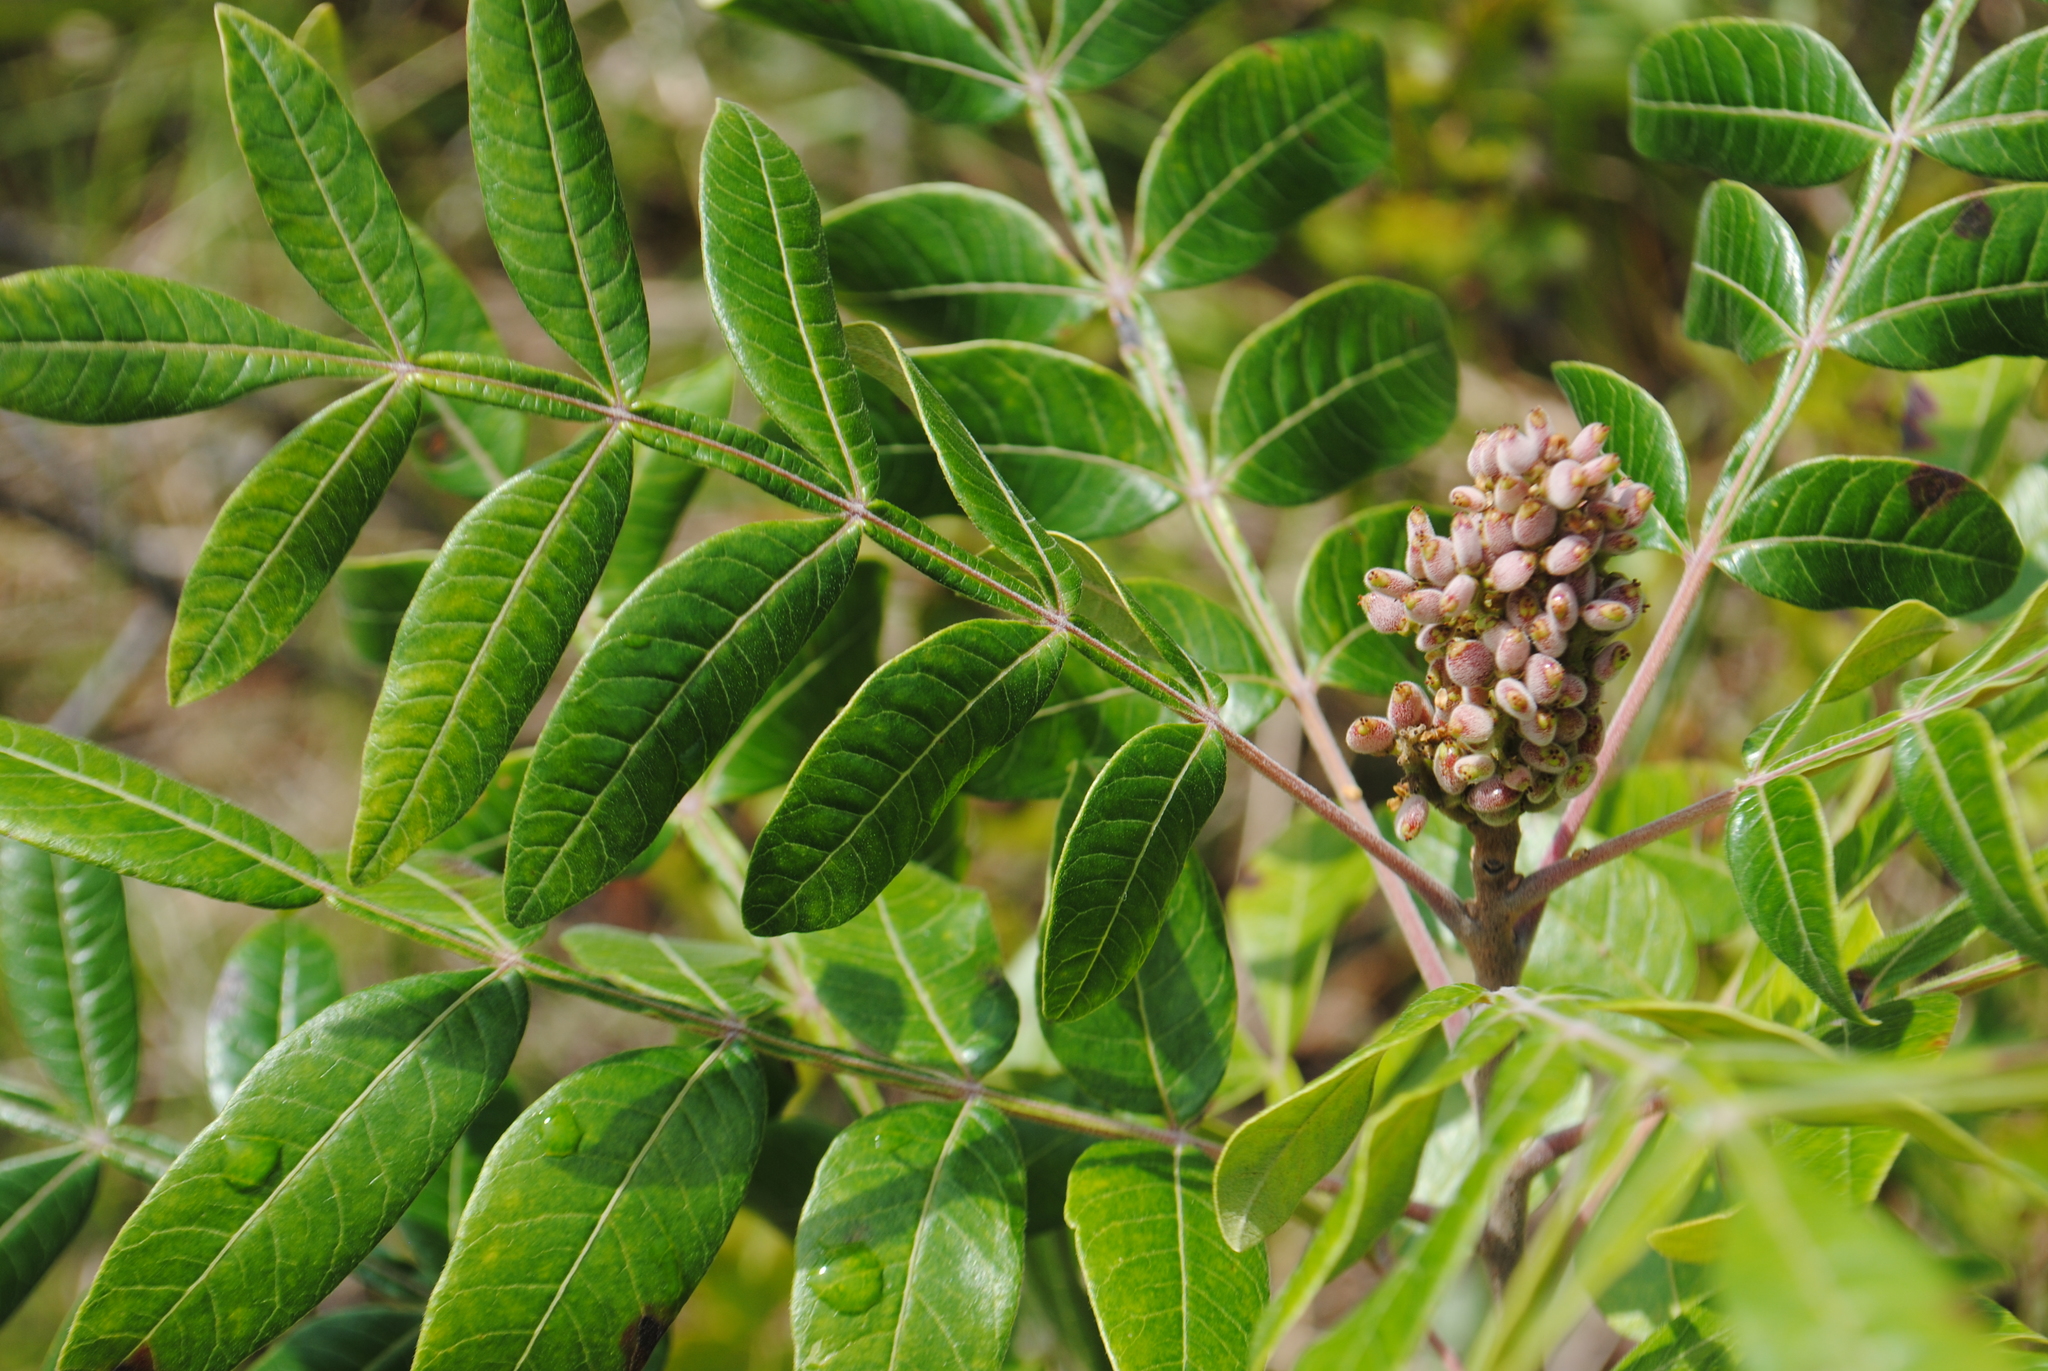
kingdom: Plantae
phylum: Tracheophyta
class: Magnoliopsida
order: Sapindales
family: Anacardiaceae
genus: Rhus
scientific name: Rhus copallina
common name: Shining sumac
